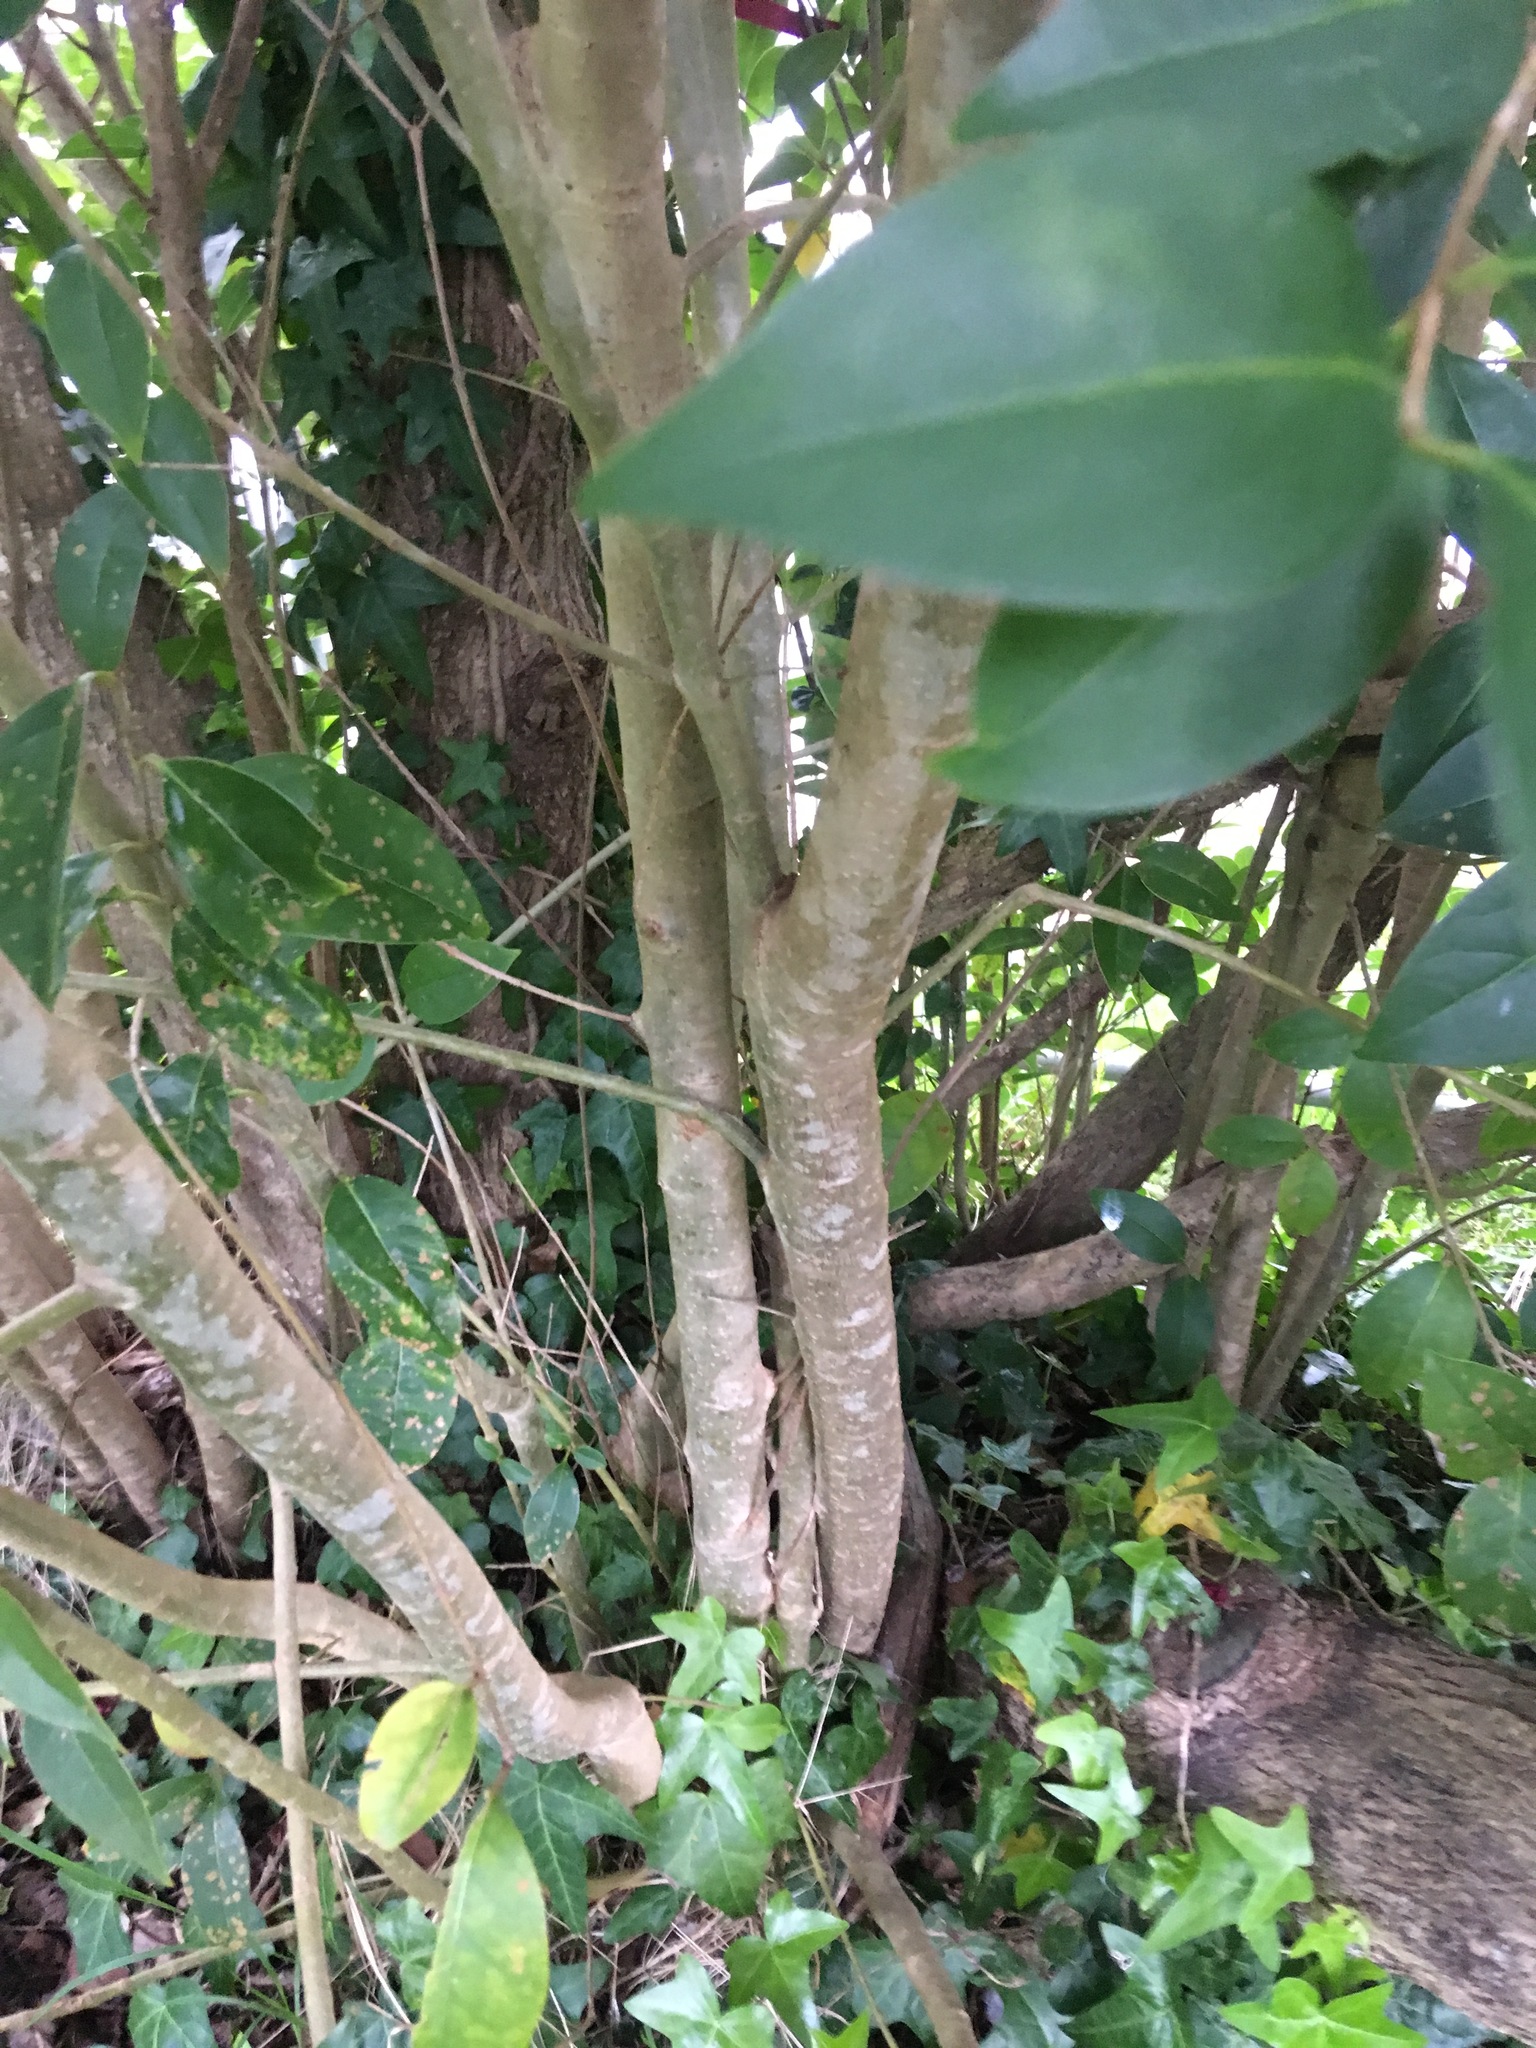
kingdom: Plantae
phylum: Tracheophyta
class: Magnoliopsida
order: Lamiales
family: Oleaceae
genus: Ligustrum
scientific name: Ligustrum lucidum
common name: Glossy privet
